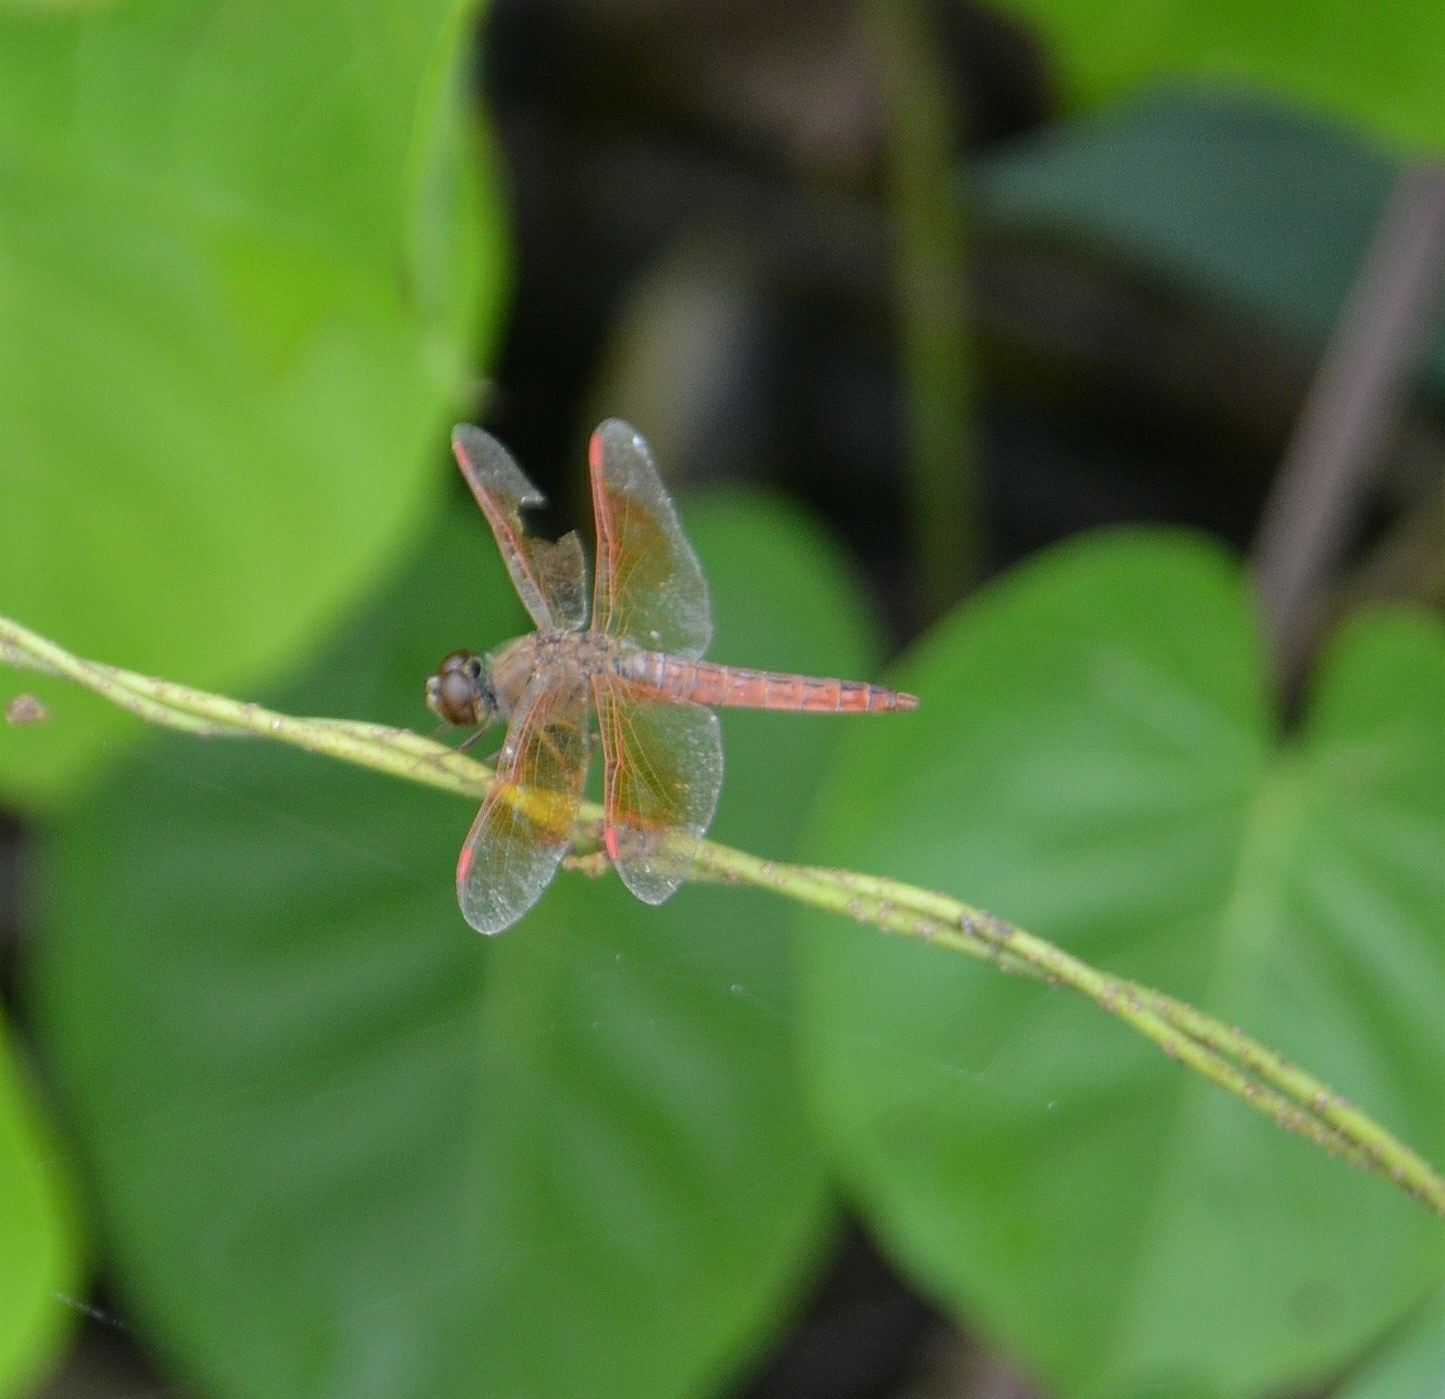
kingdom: Animalia
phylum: Arthropoda
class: Insecta
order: Odonata
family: Libellulidae
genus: Brachythemis
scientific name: Brachythemis contaminata
